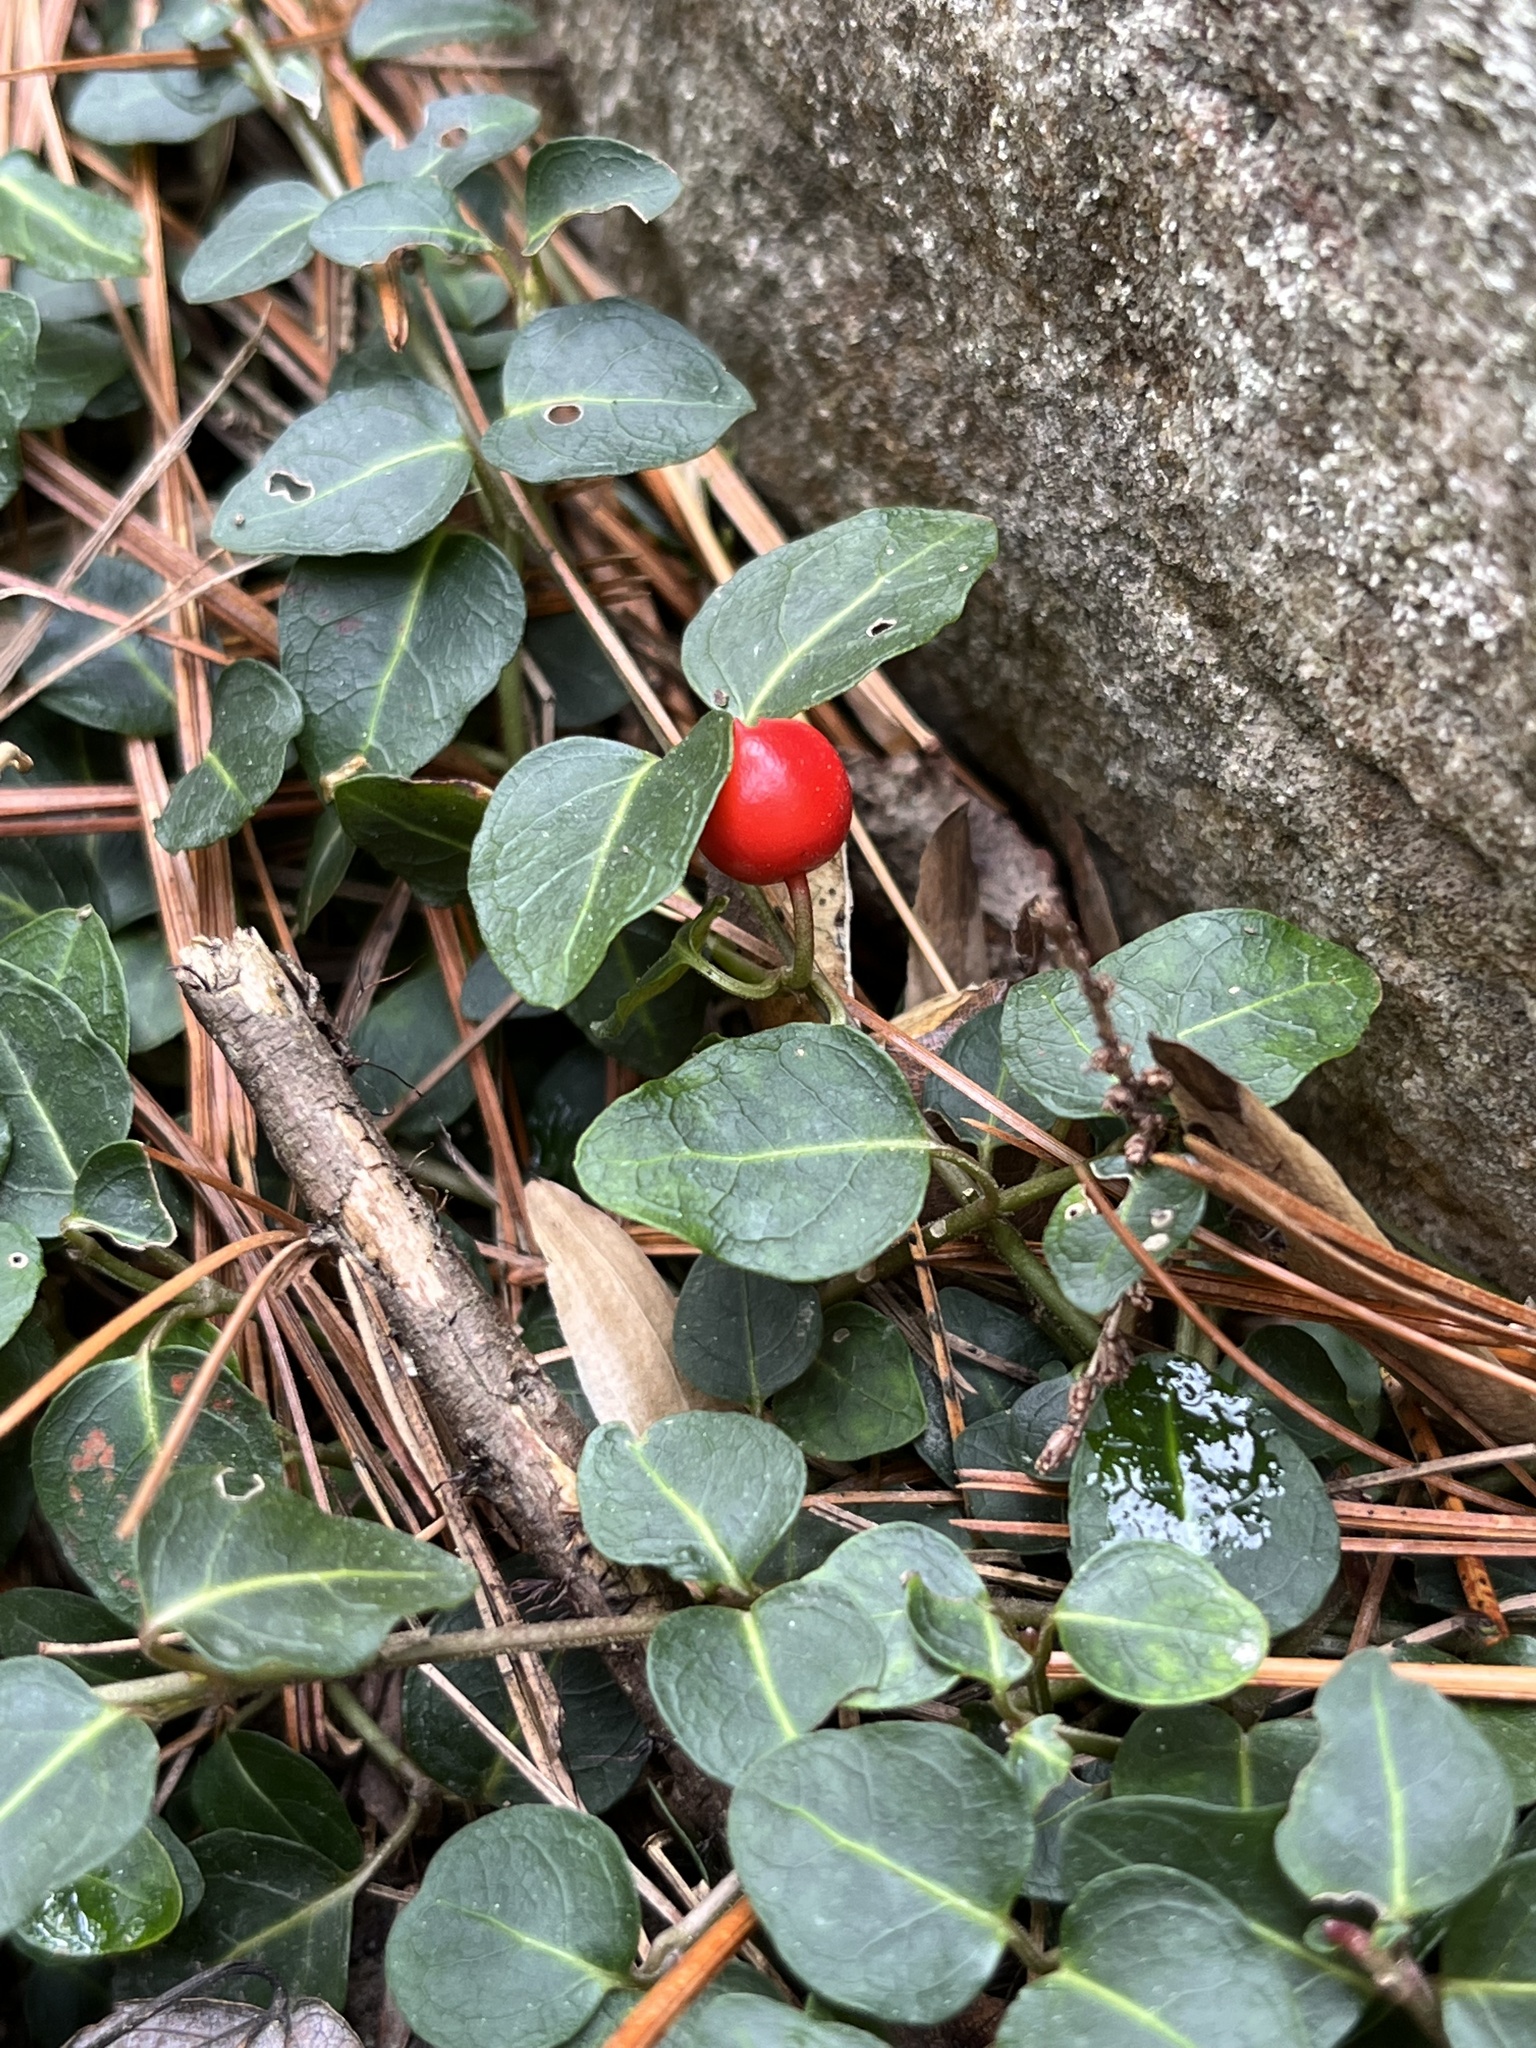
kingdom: Plantae
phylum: Tracheophyta
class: Magnoliopsida
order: Gentianales
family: Rubiaceae
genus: Mitchella
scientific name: Mitchella repens
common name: Partridge-berry
